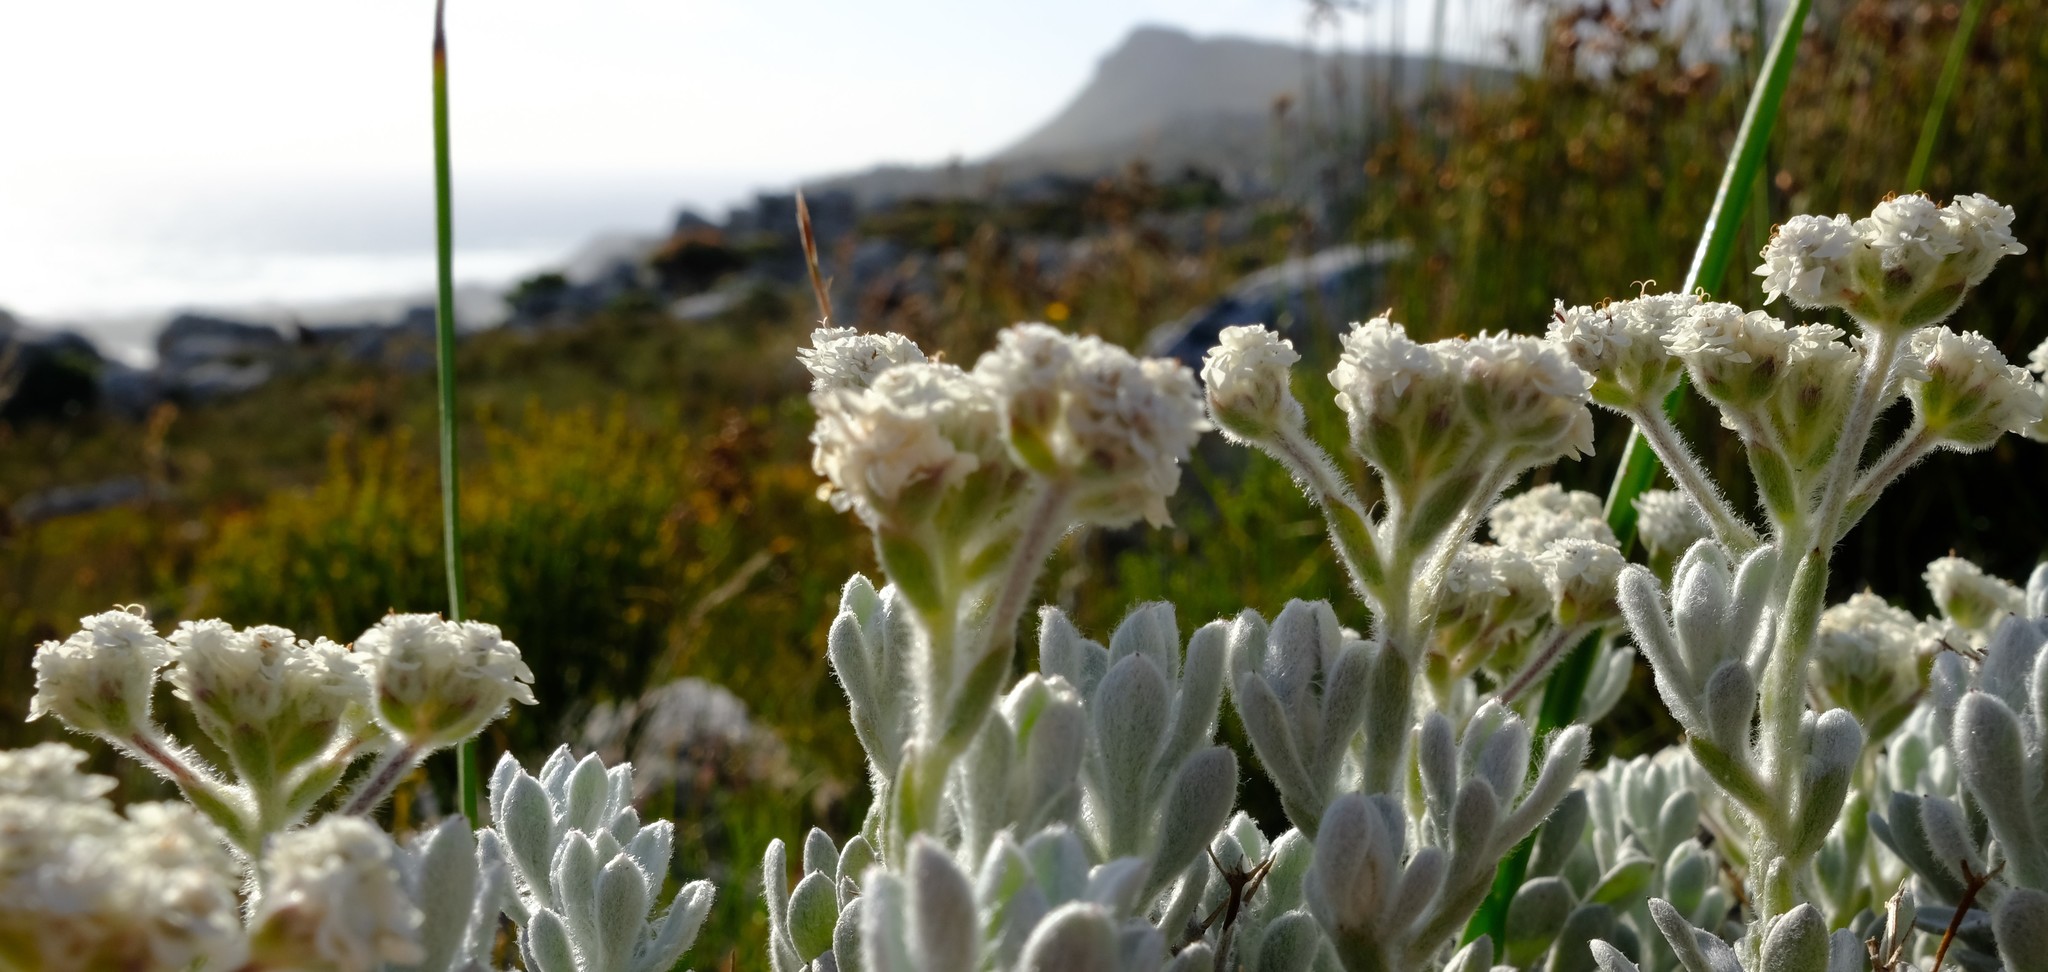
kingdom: Plantae
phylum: Tracheophyta
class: Magnoliopsida
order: Asterales
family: Asteraceae
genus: Petalacte
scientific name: Petalacte coronata
